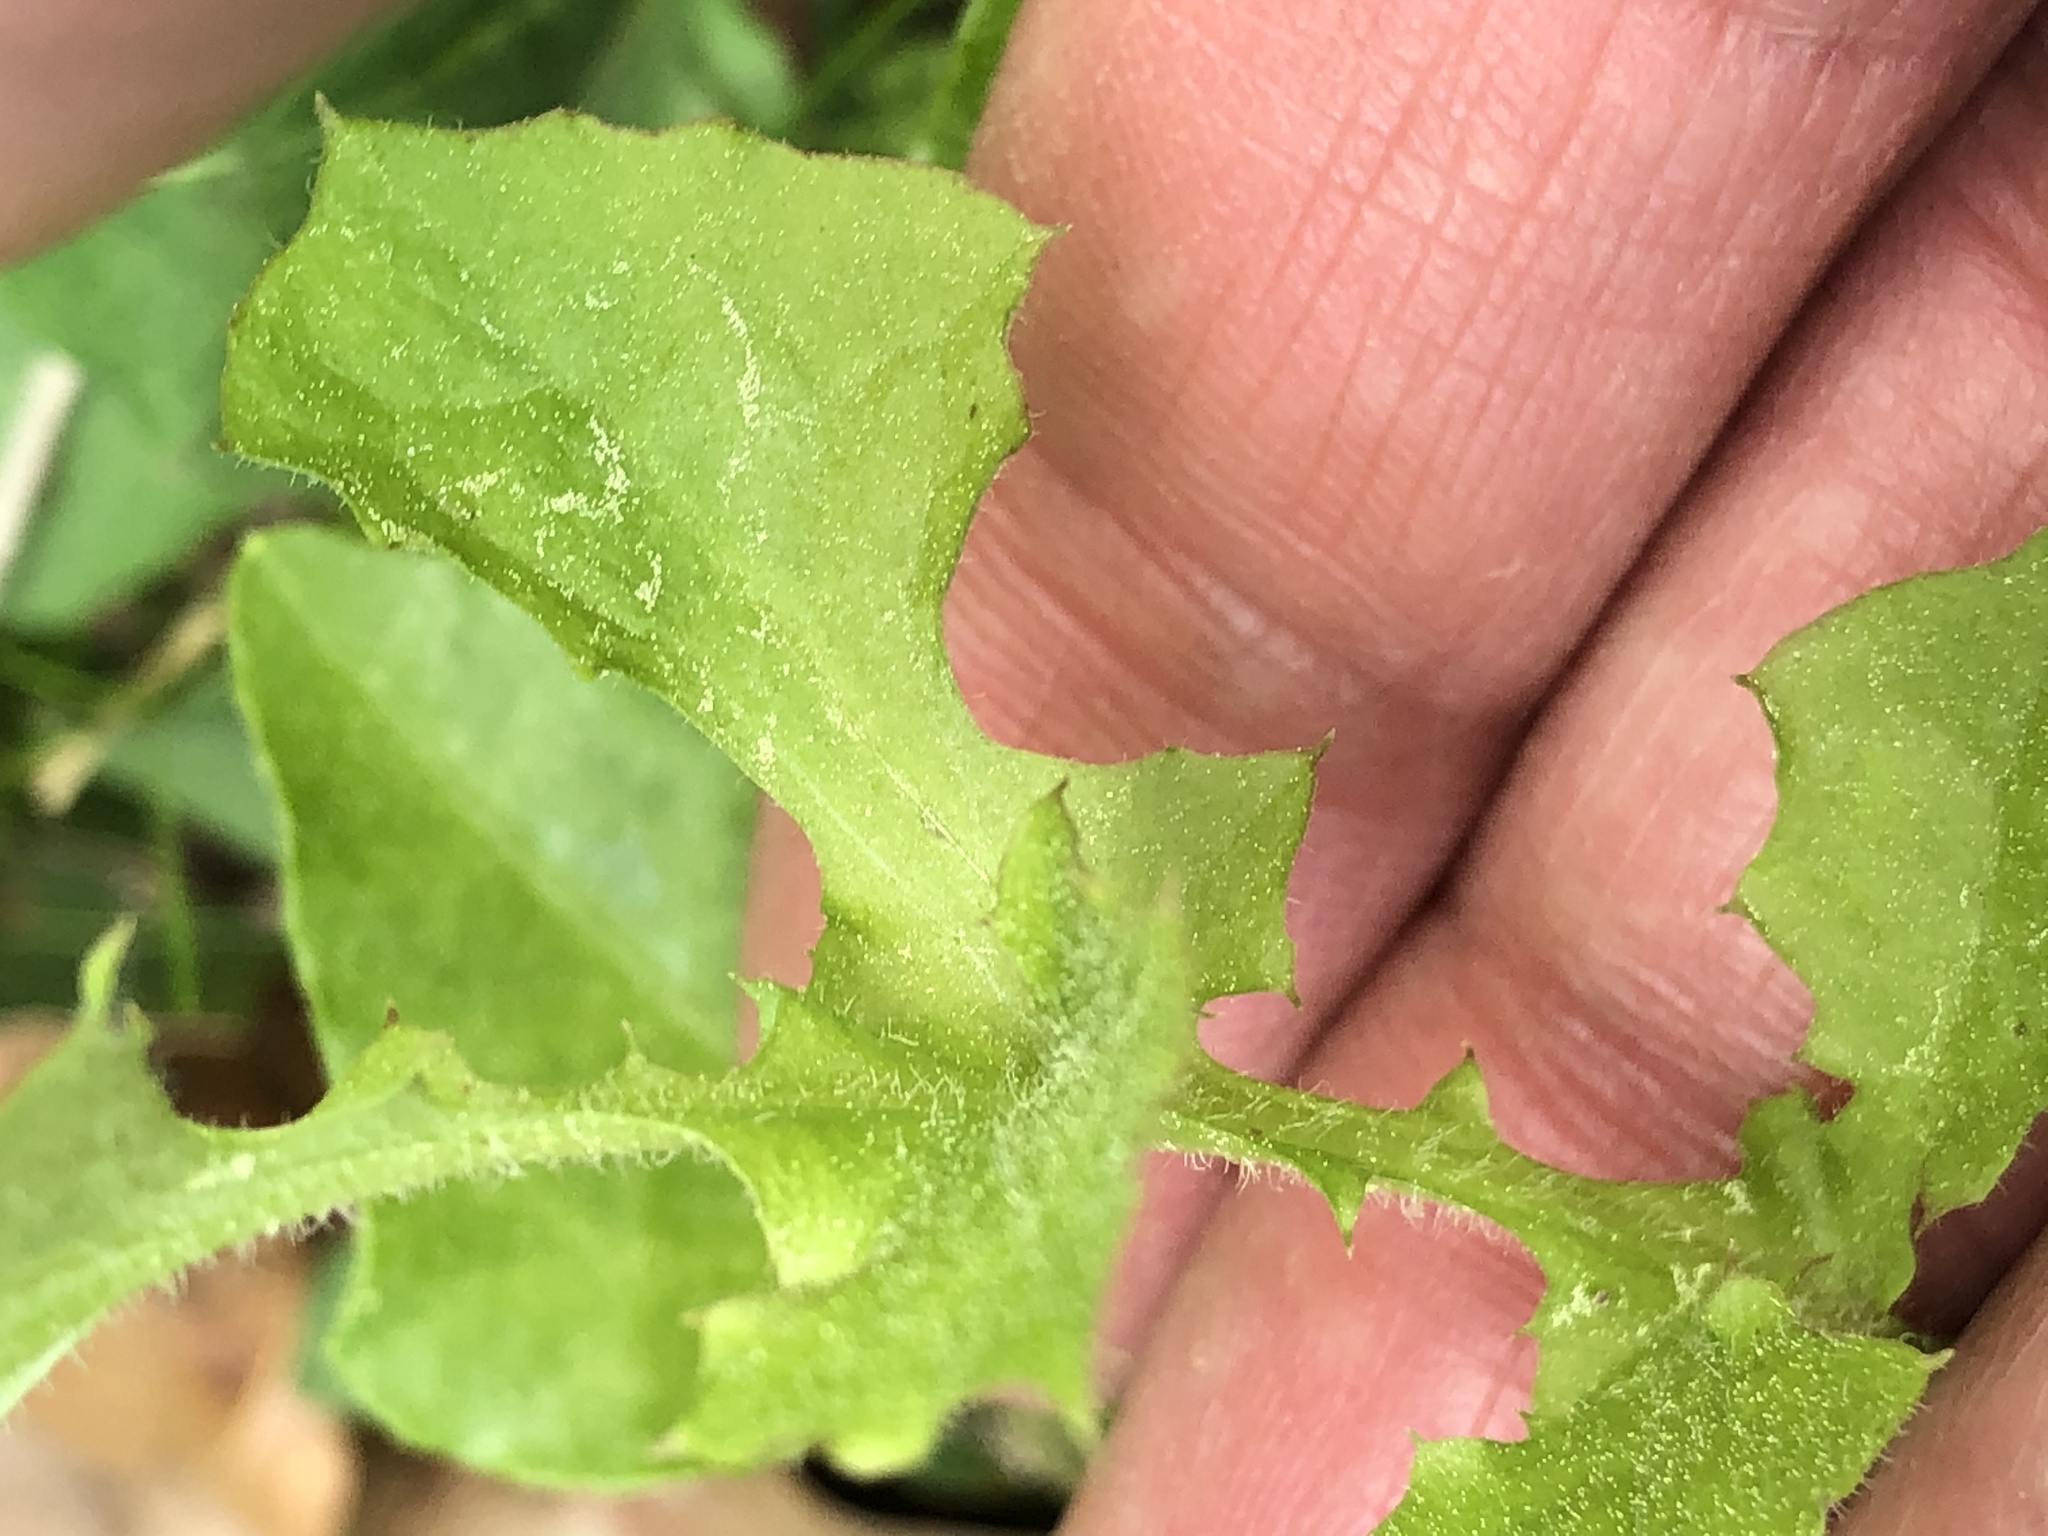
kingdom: Plantae
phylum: Tracheophyta
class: Magnoliopsida
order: Asterales
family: Asteraceae
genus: Youngia
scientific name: Youngia japonica
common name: Oriental false hawksbeard
